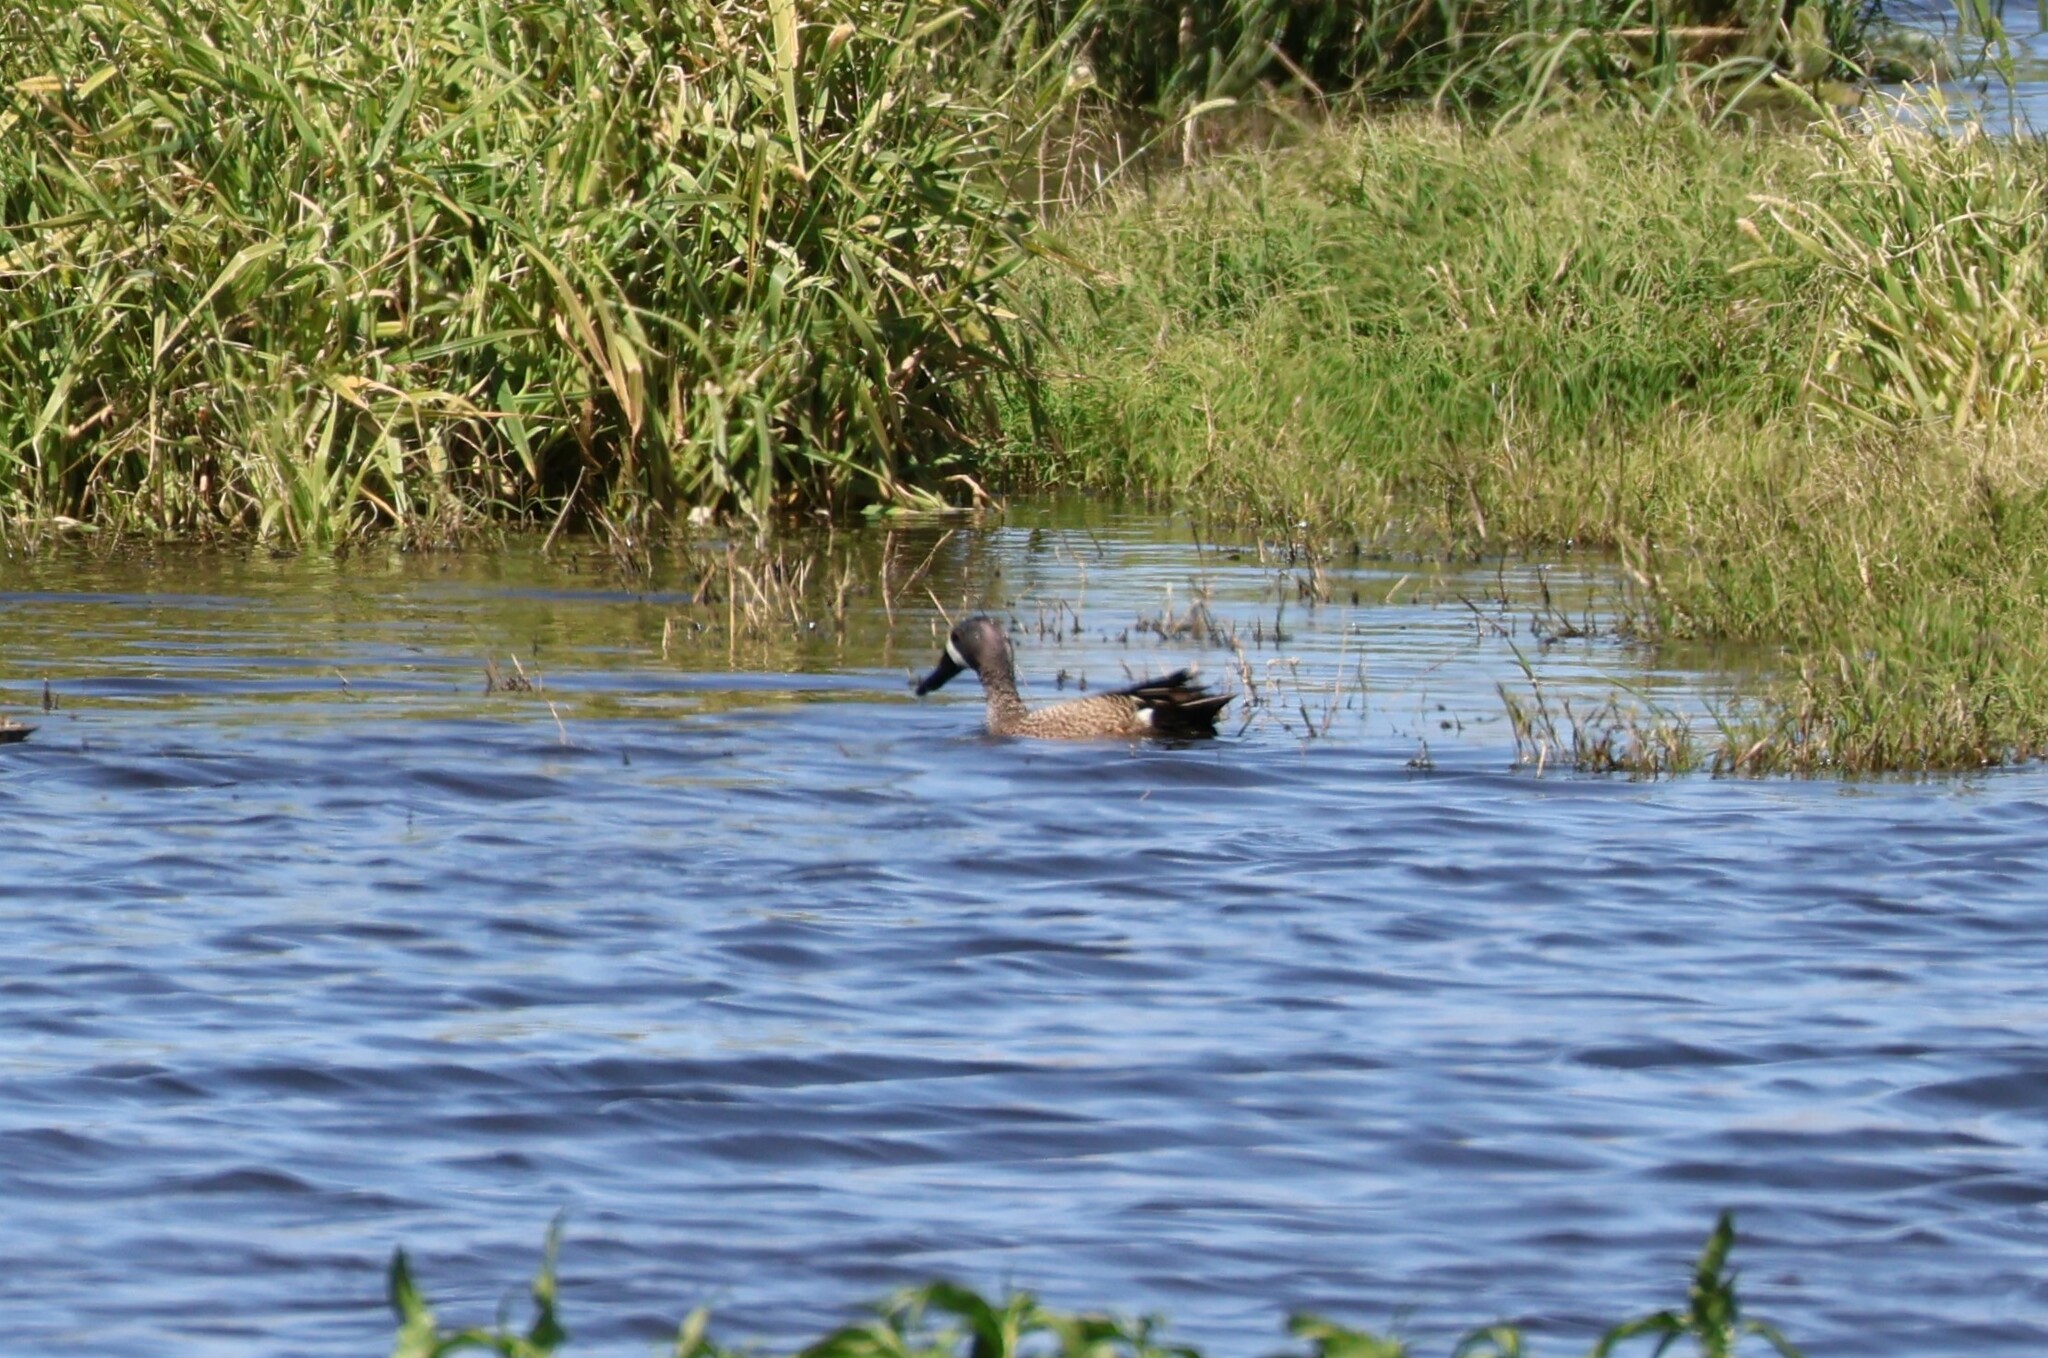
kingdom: Animalia
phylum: Chordata
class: Aves
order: Anseriformes
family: Anatidae
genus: Spatula
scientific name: Spatula discors
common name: Blue-winged teal
